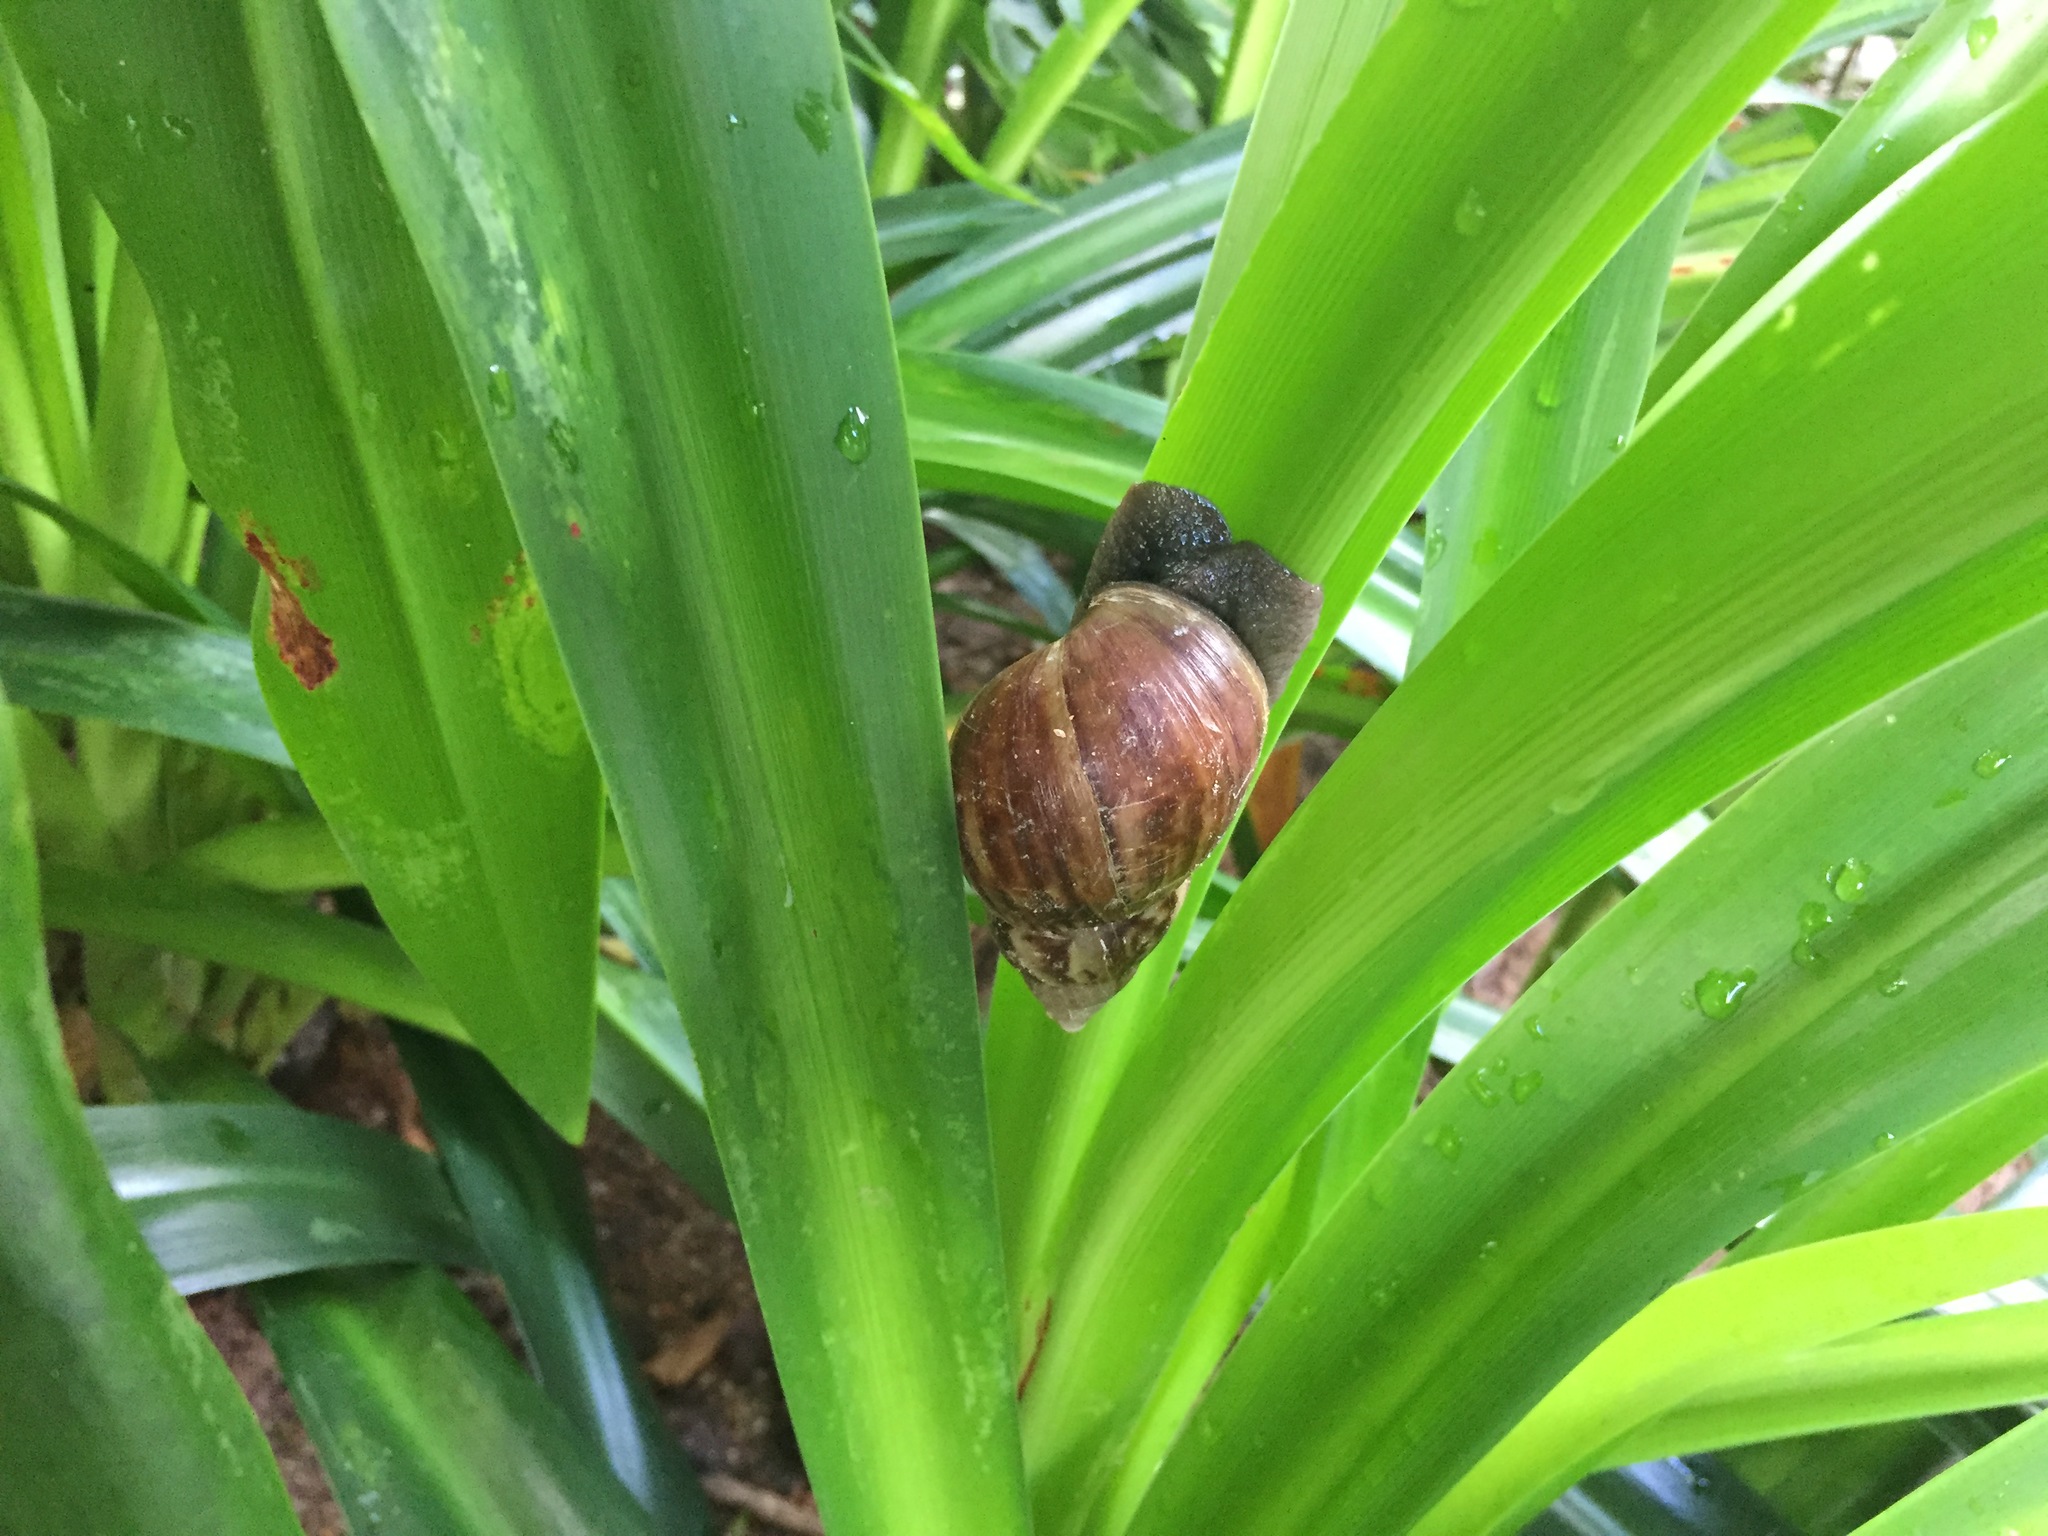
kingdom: Animalia
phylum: Mollusca
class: Gastropoda
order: Stylommatophora
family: Achatinidae
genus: Lissachatina
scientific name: Lissachatina fulica
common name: Giant african snail
